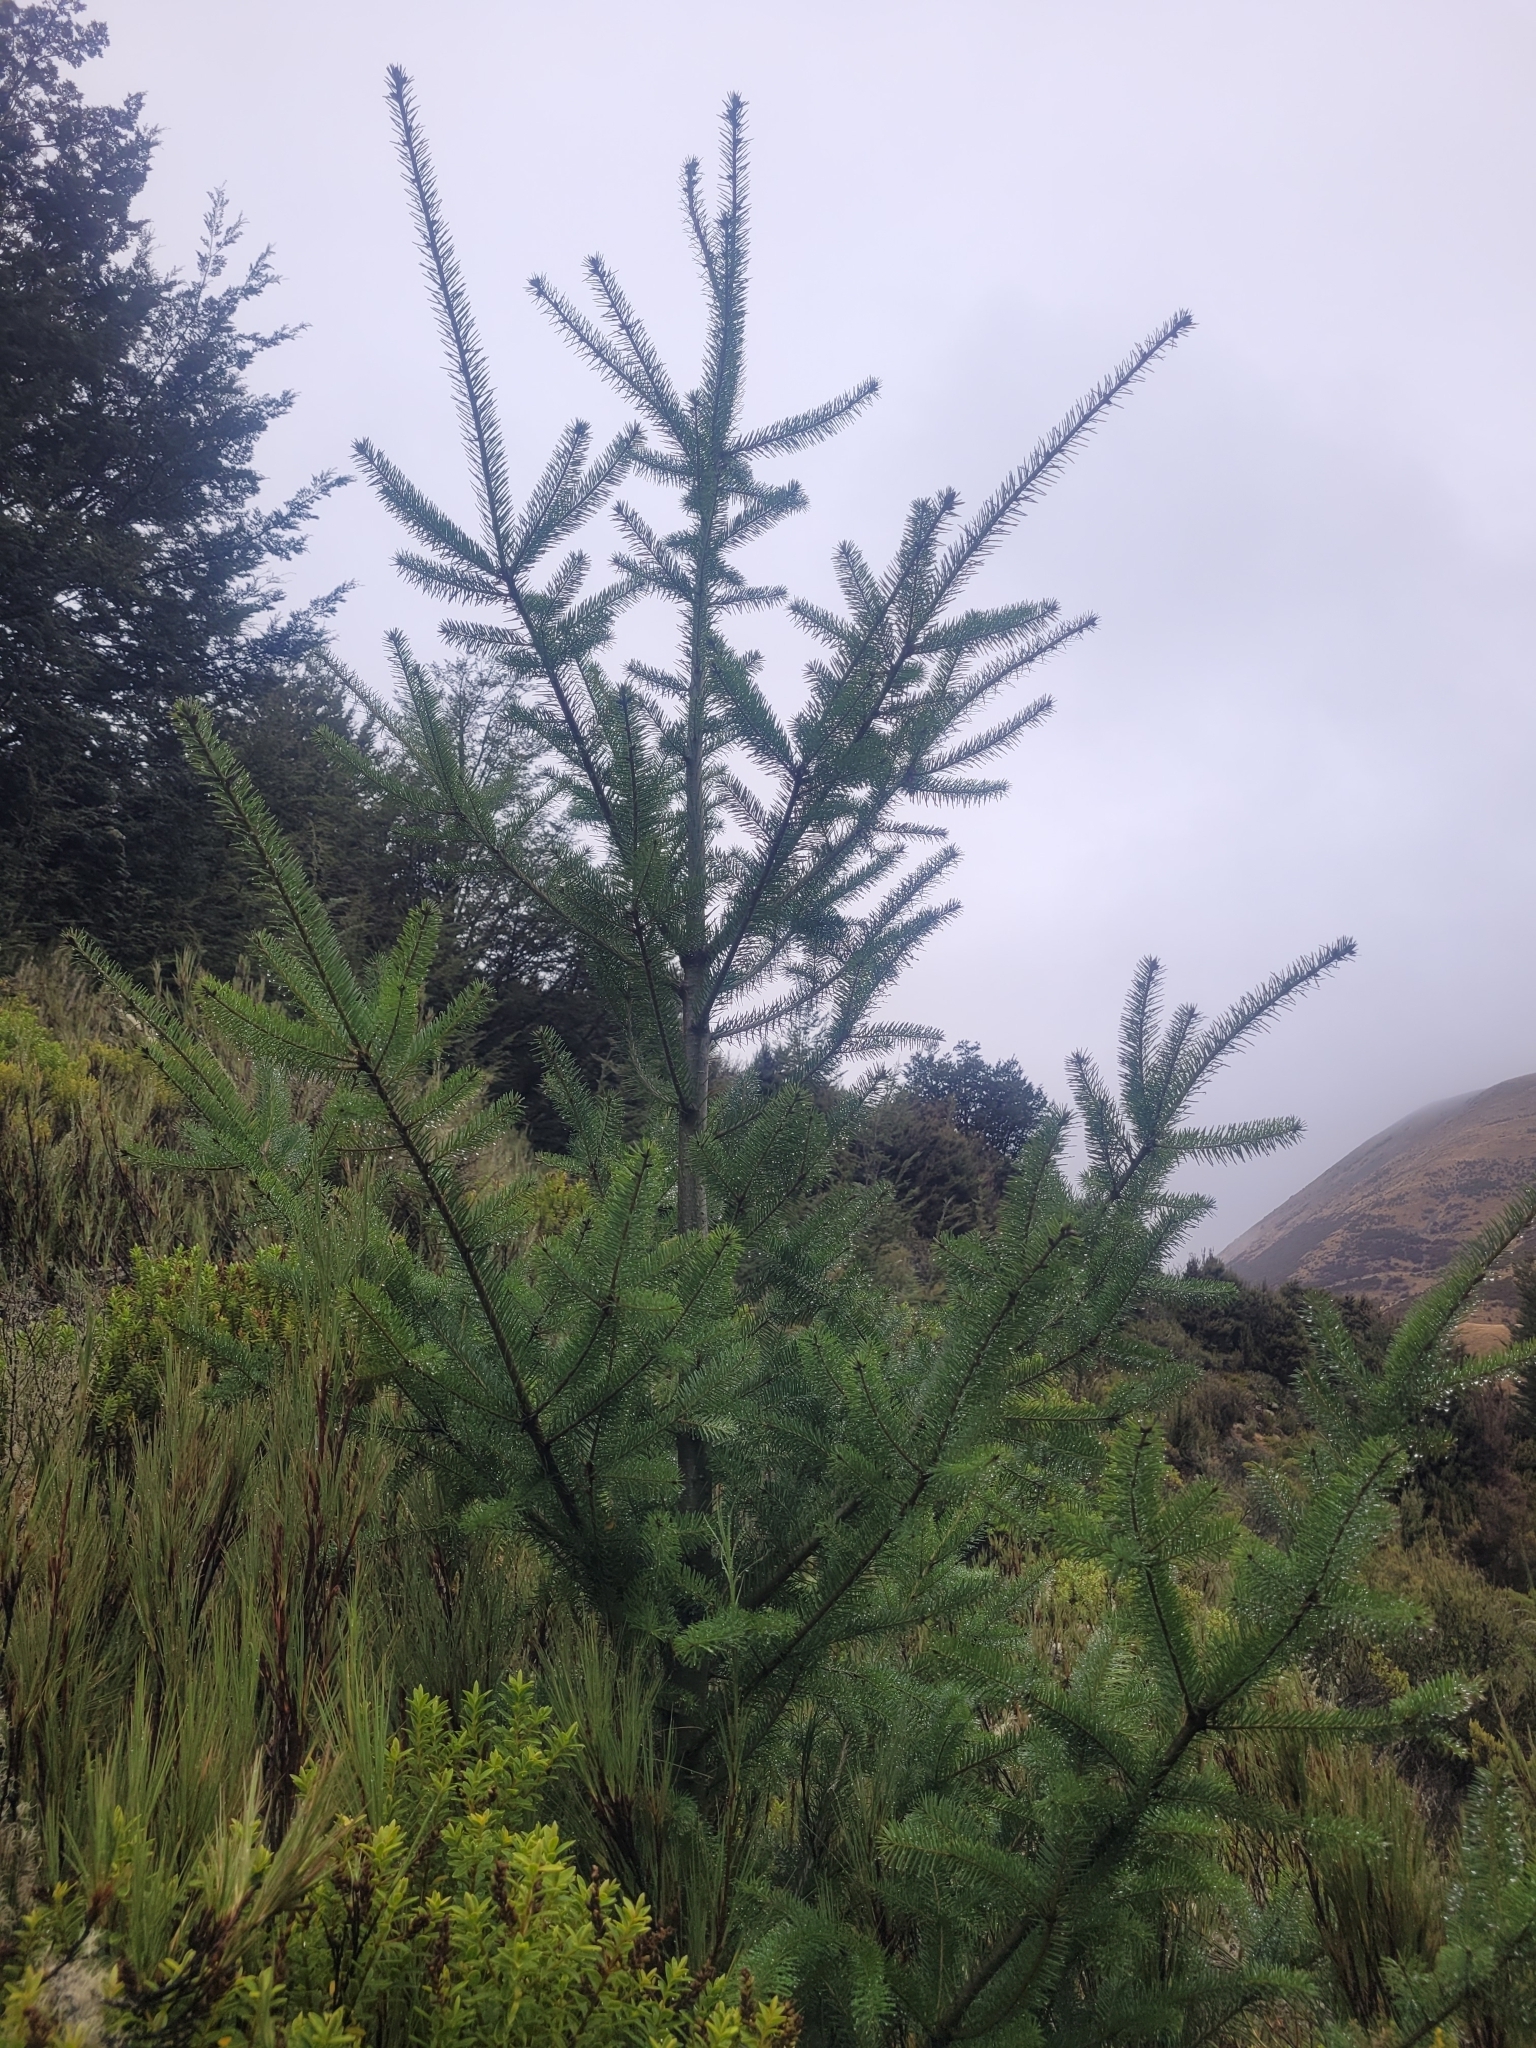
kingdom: Plantae
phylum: Tracheophyta
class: Pinopsida
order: Pinales
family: Pinaceae
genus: Pseudotsuga
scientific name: Pseudotsuga menziesii
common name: Douglas fir
